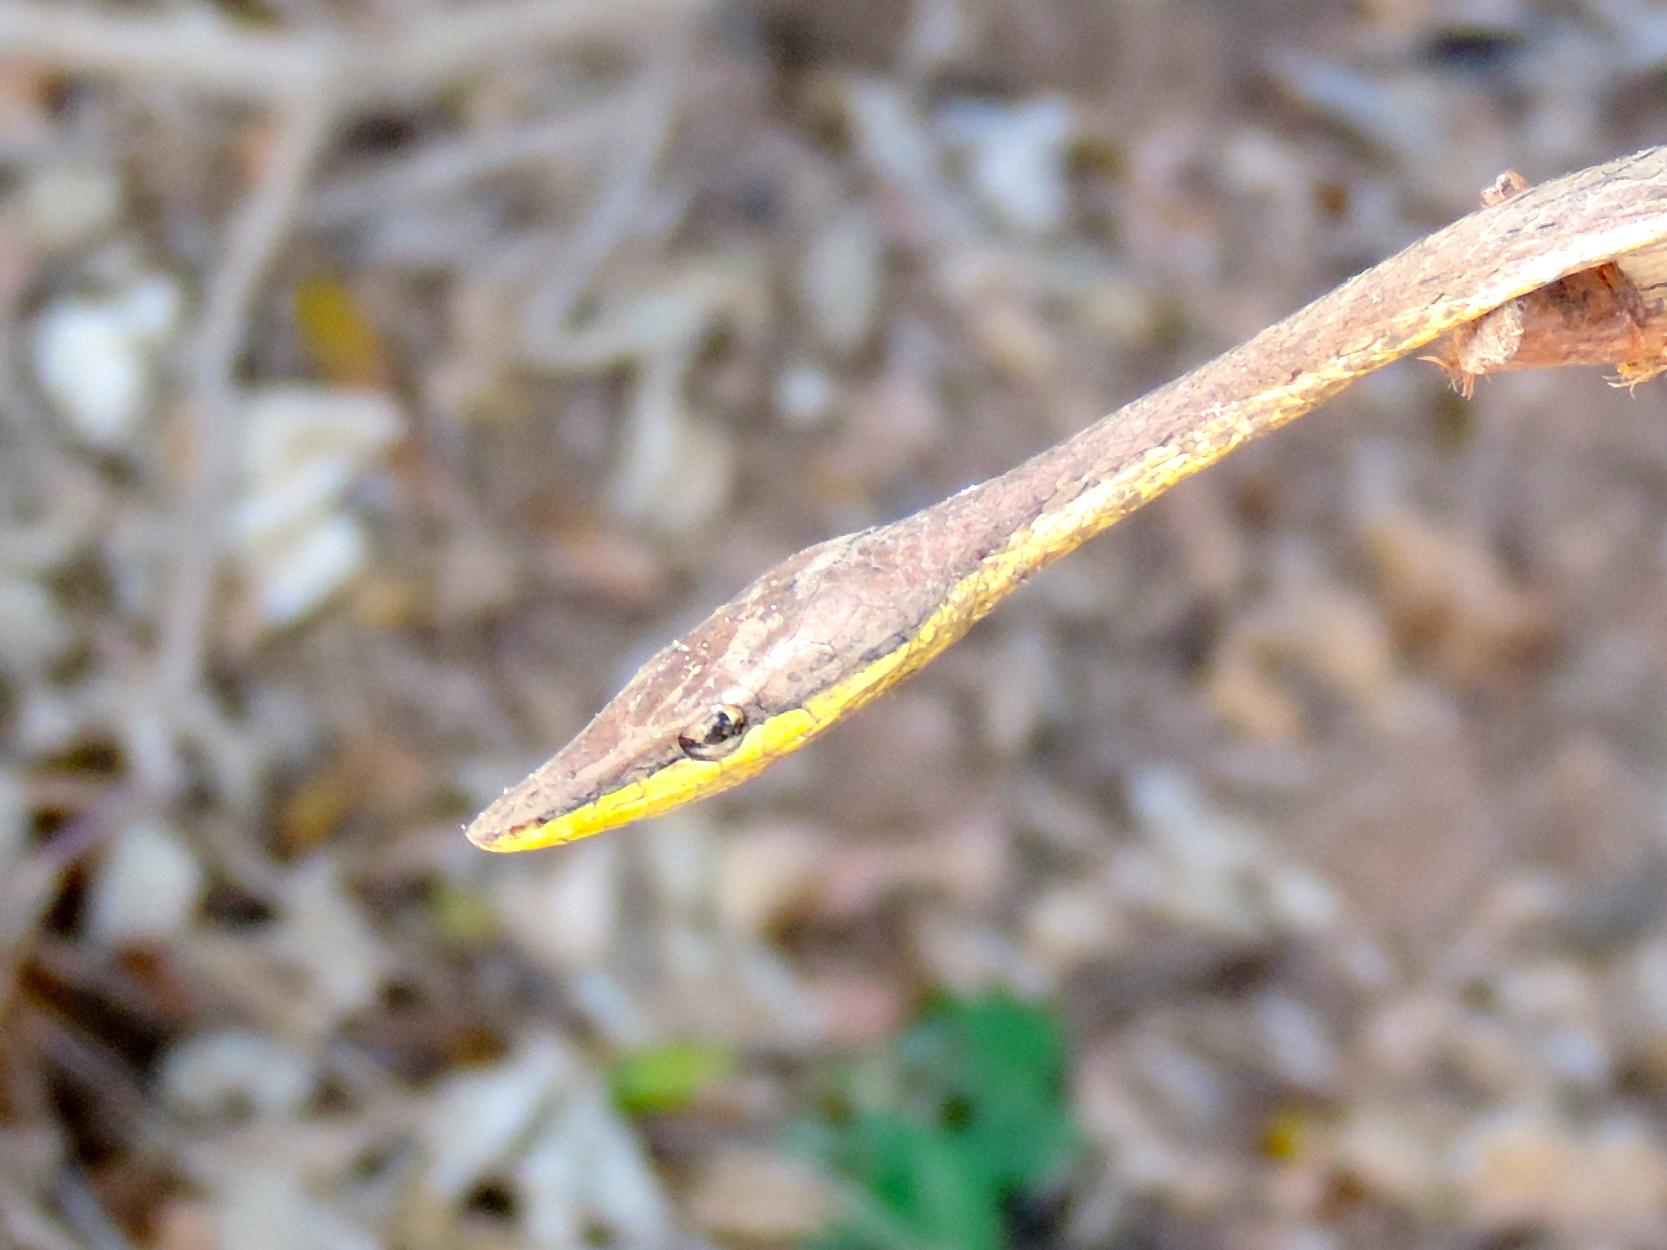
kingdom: Animalia
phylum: Chordata
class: Squamata
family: Colubridae
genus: Oxybelis
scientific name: Oxybelis microphthalmus
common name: Thrornscrub vine snake
